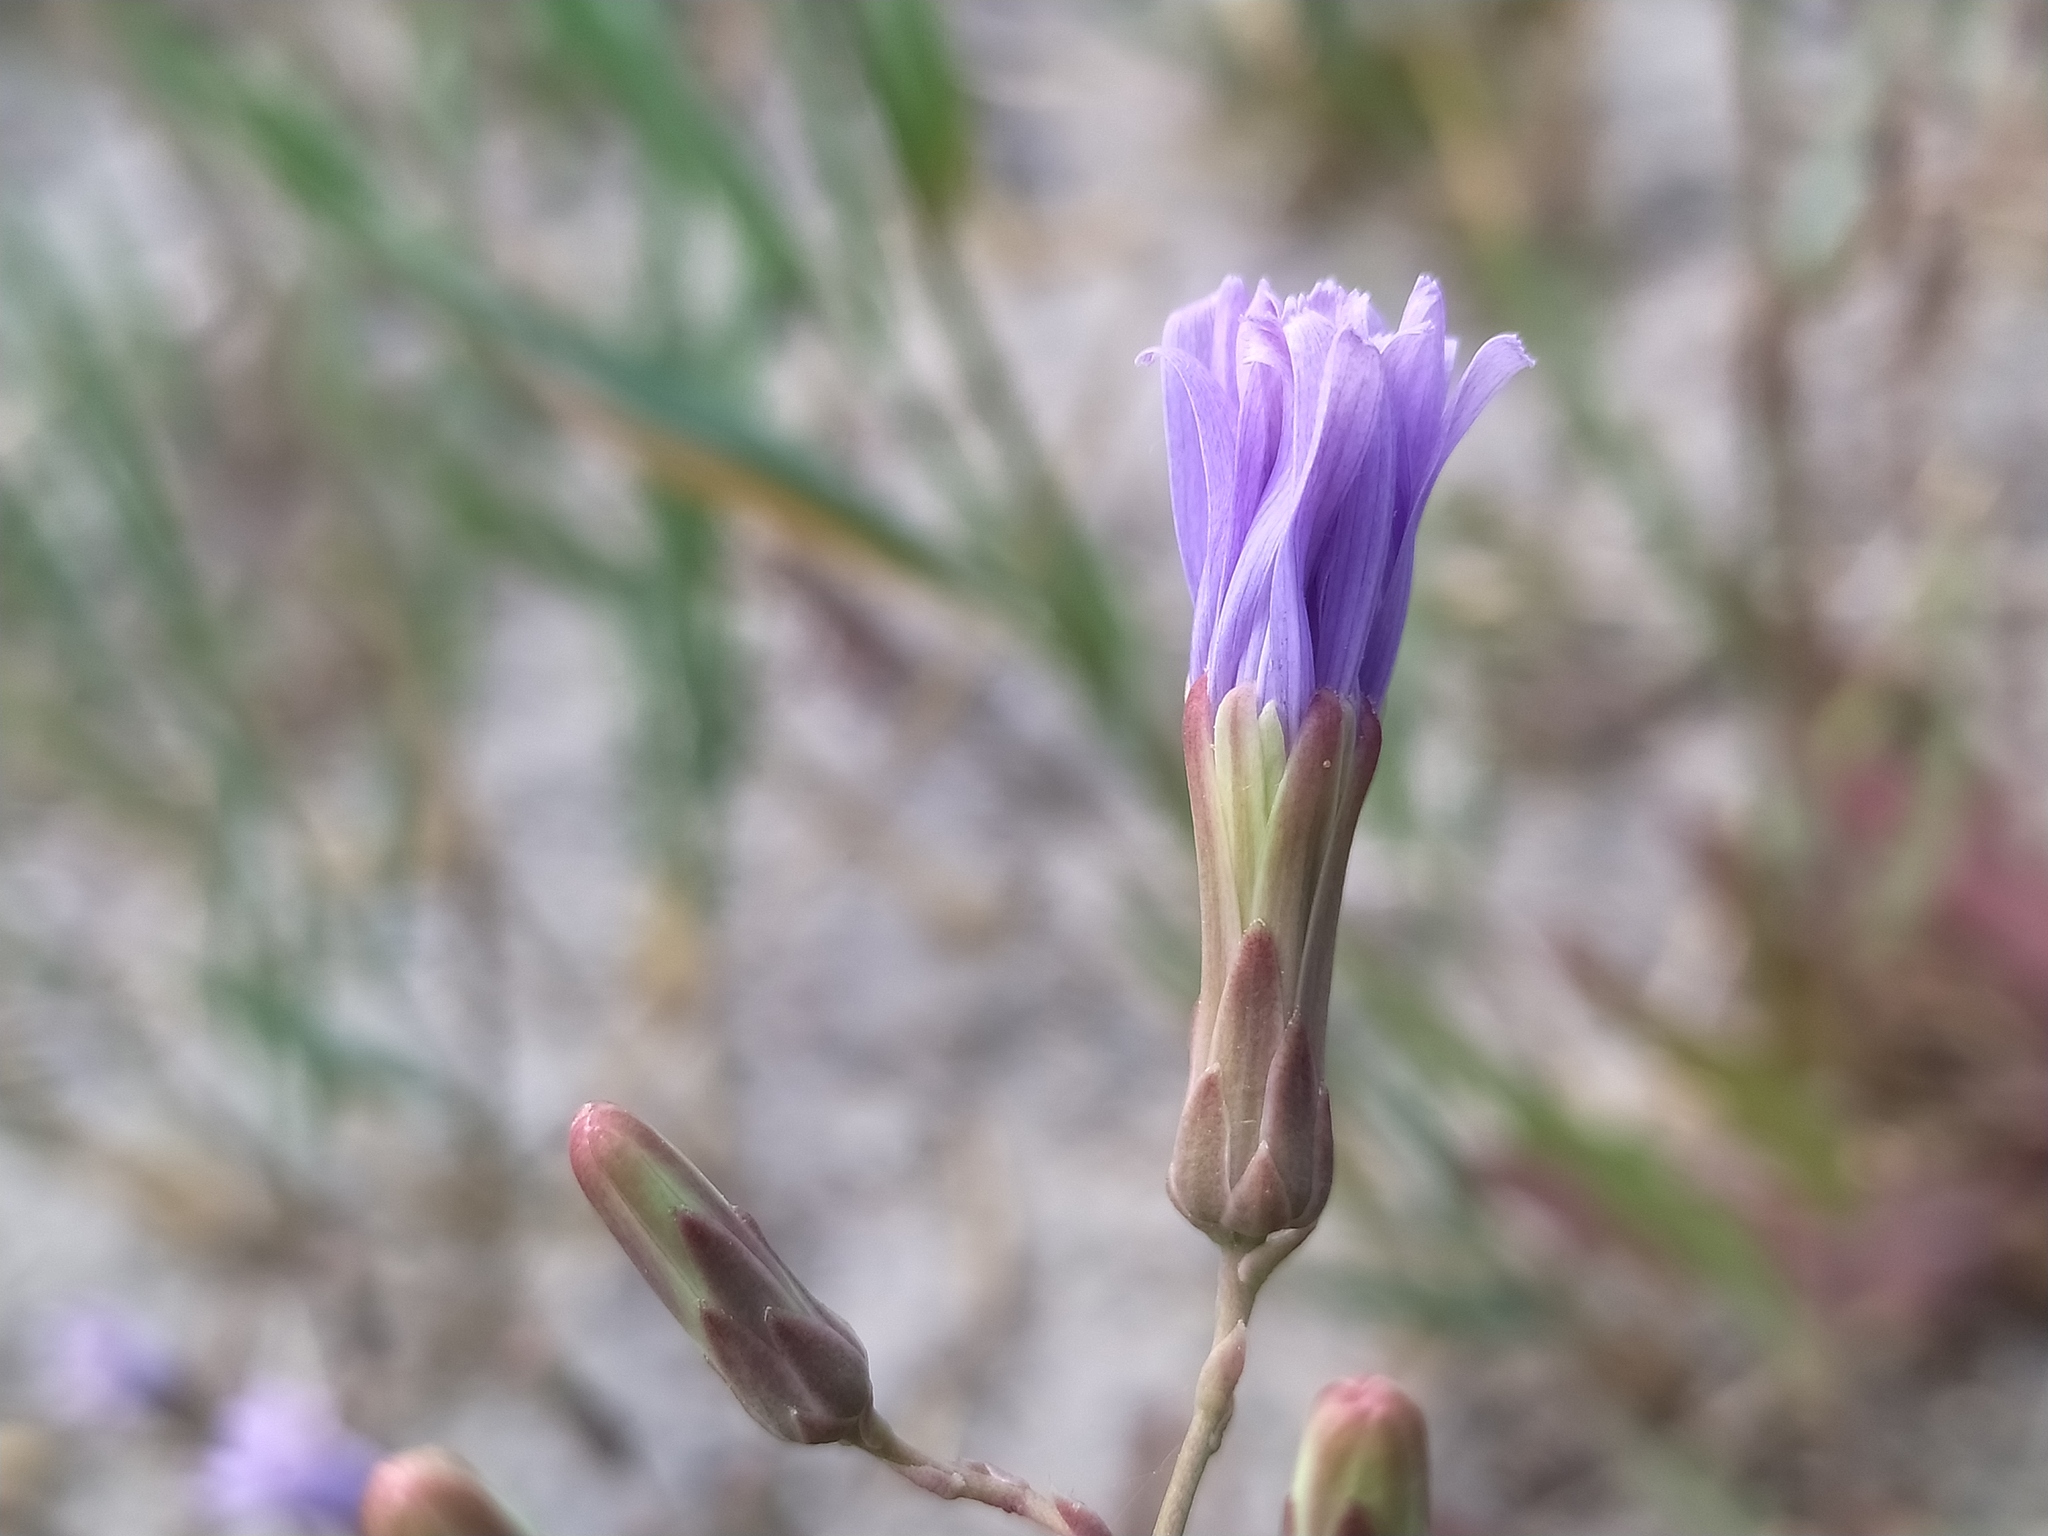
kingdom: Plantae
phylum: Tracheophyta
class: Magnoliopsida
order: Asterales
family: Asteraceae
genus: Lactuca
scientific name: Lactuca tatarica
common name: Blue lettuce
